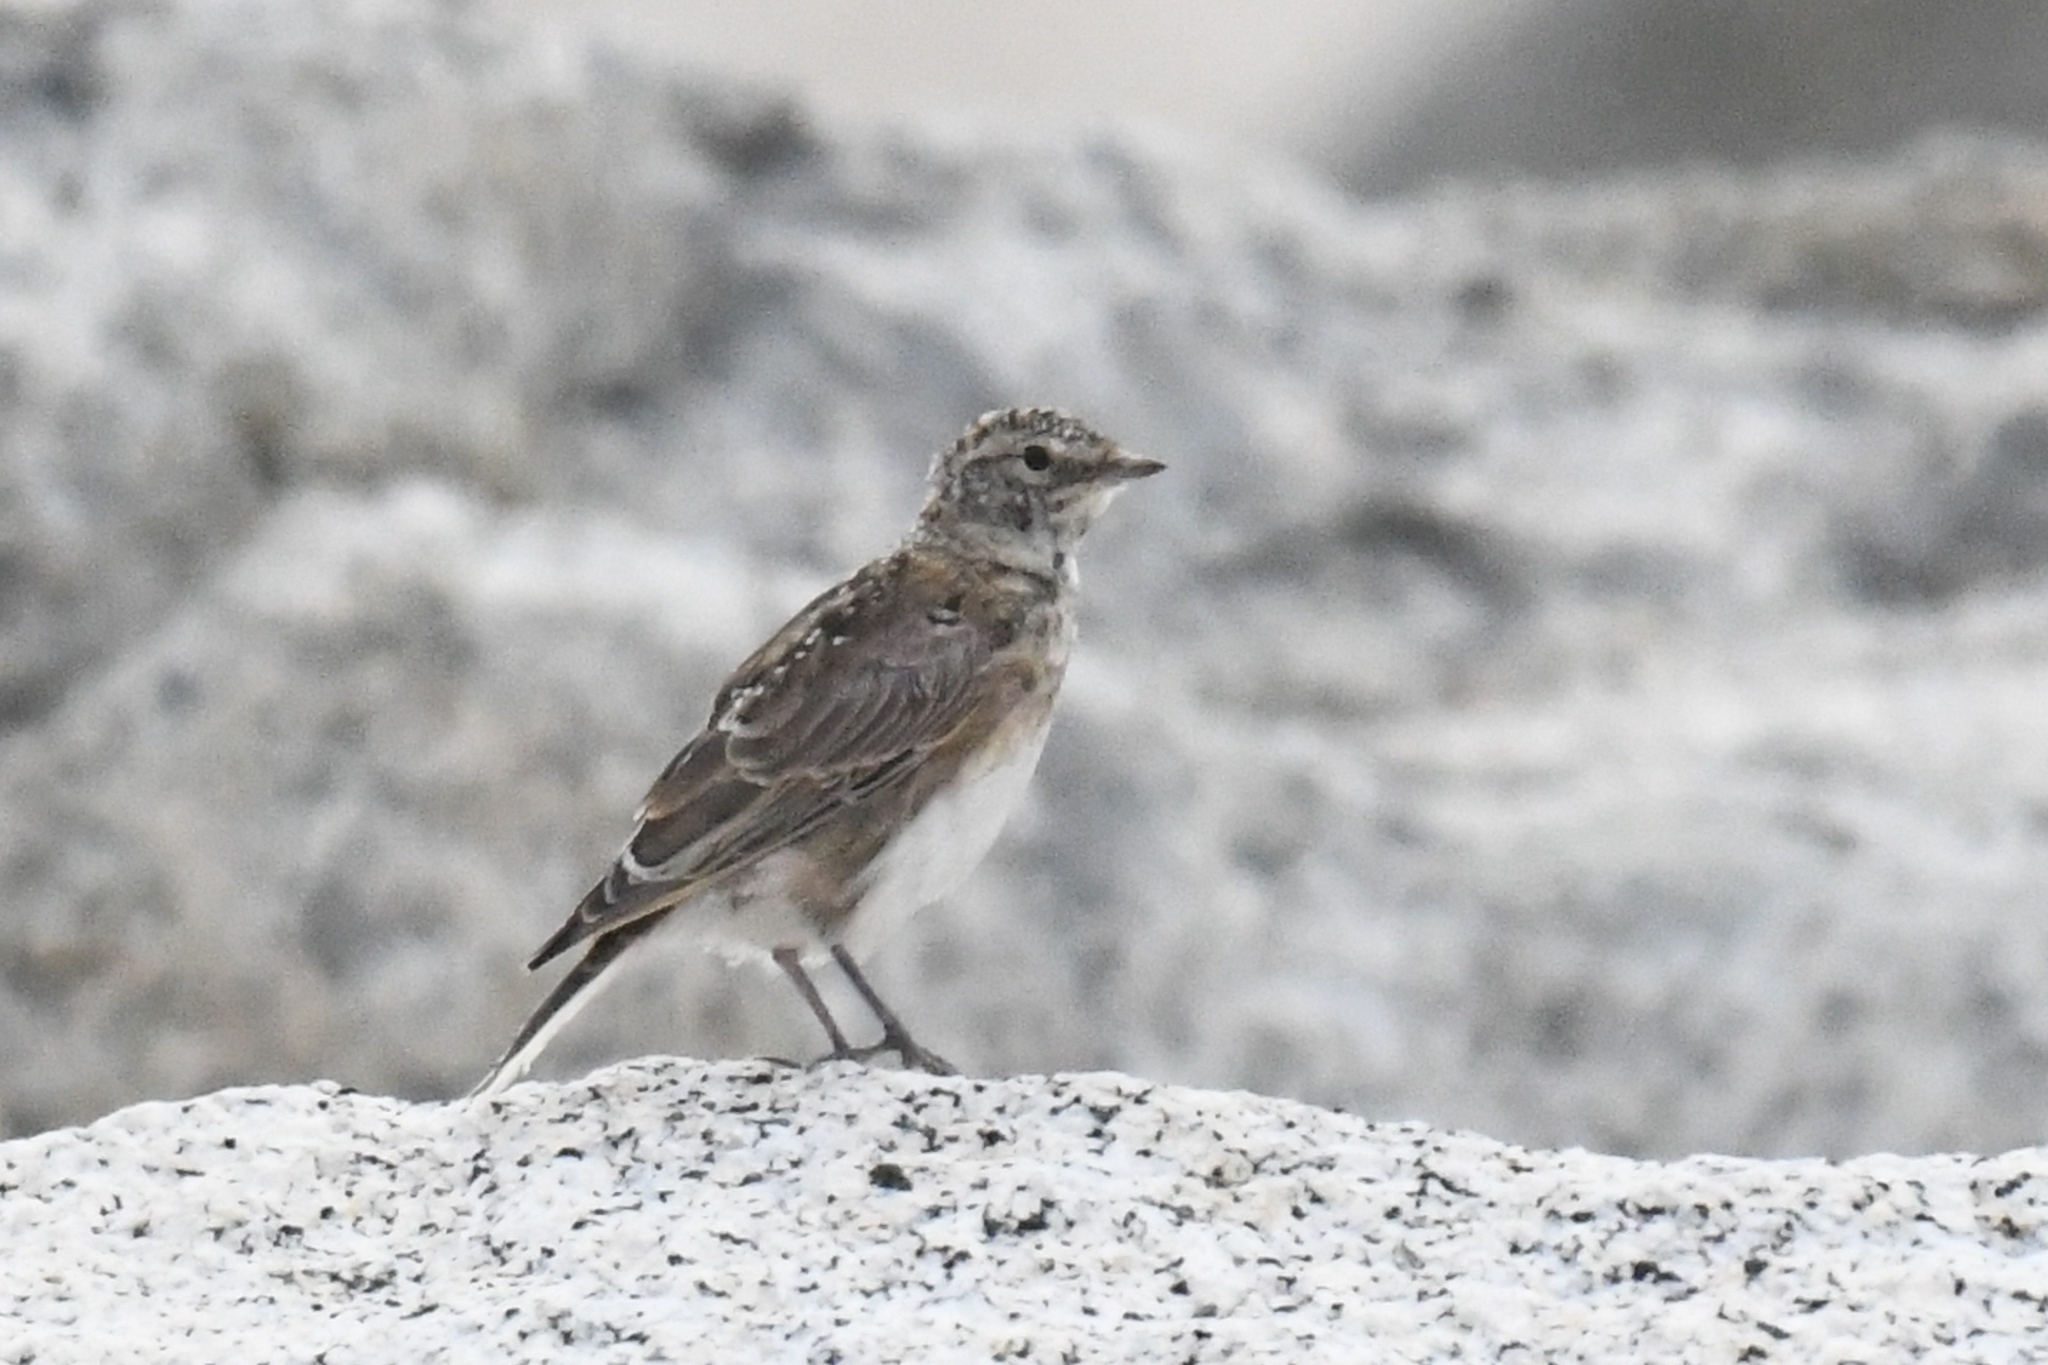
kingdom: Animalia
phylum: Chordata
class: Aves
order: Passeriformes
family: Alaudidae
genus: Eremophila
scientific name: Eremophila alpestris
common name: Horned lark
